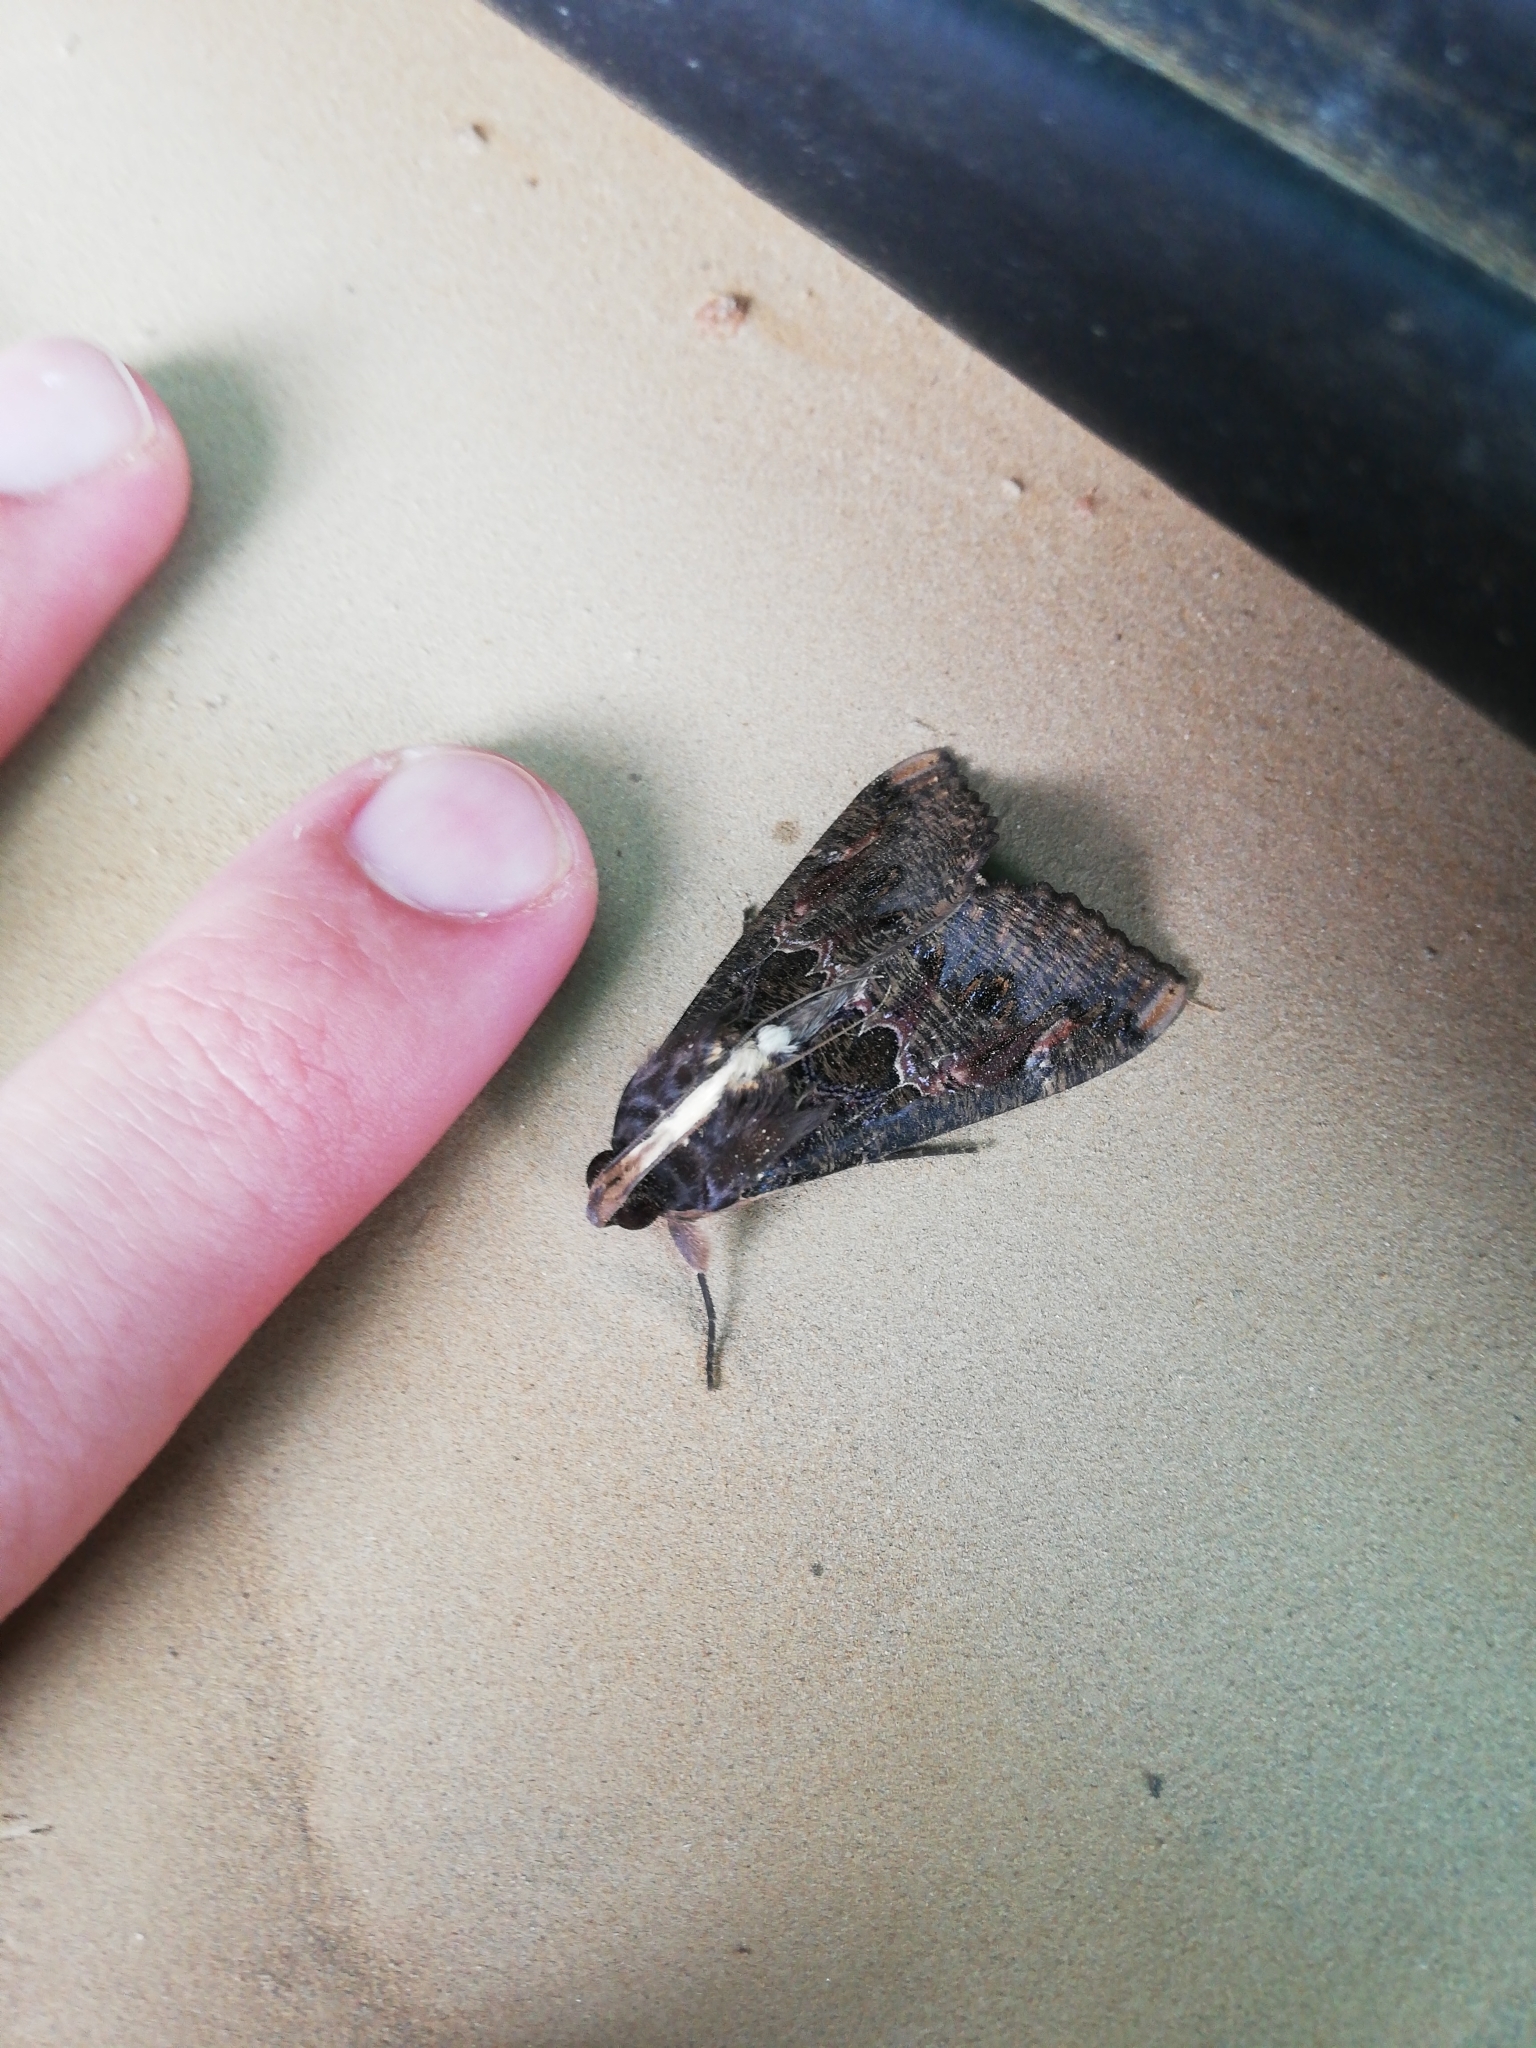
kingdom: Animalia
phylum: Arthropoda
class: Insecta
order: Lepidoptera
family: Erebidae
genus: Sphingomorpha
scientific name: Sphingomorpha chlorea
